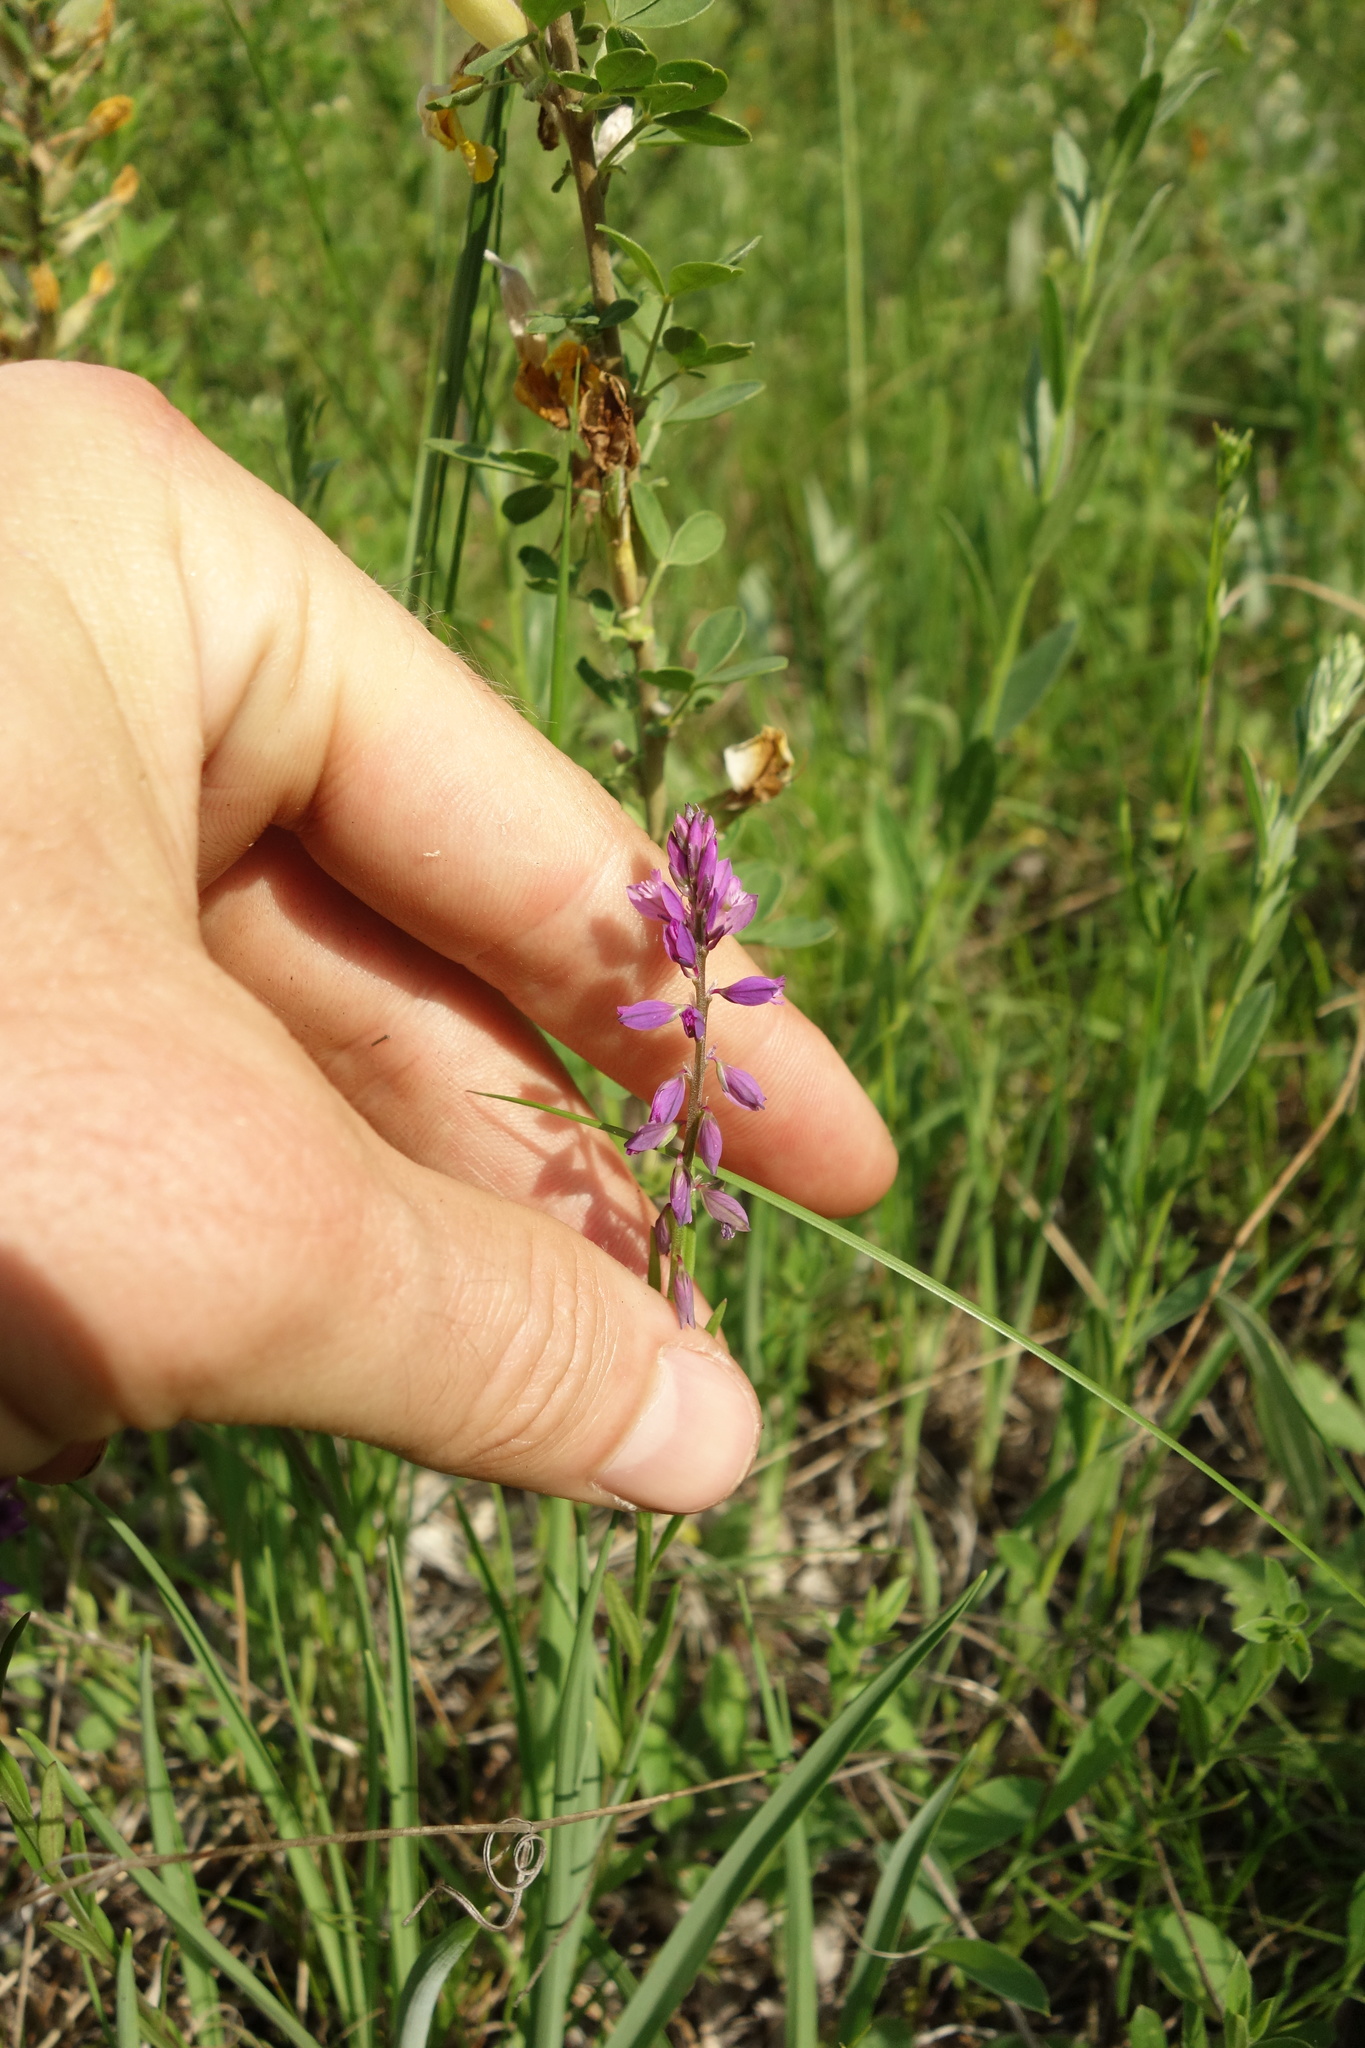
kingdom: Plantae
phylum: Tracheophyta
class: Magnoliopsida
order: Fabales
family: Polygalaceae
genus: Polygala
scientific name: Polygala nicaeensis
